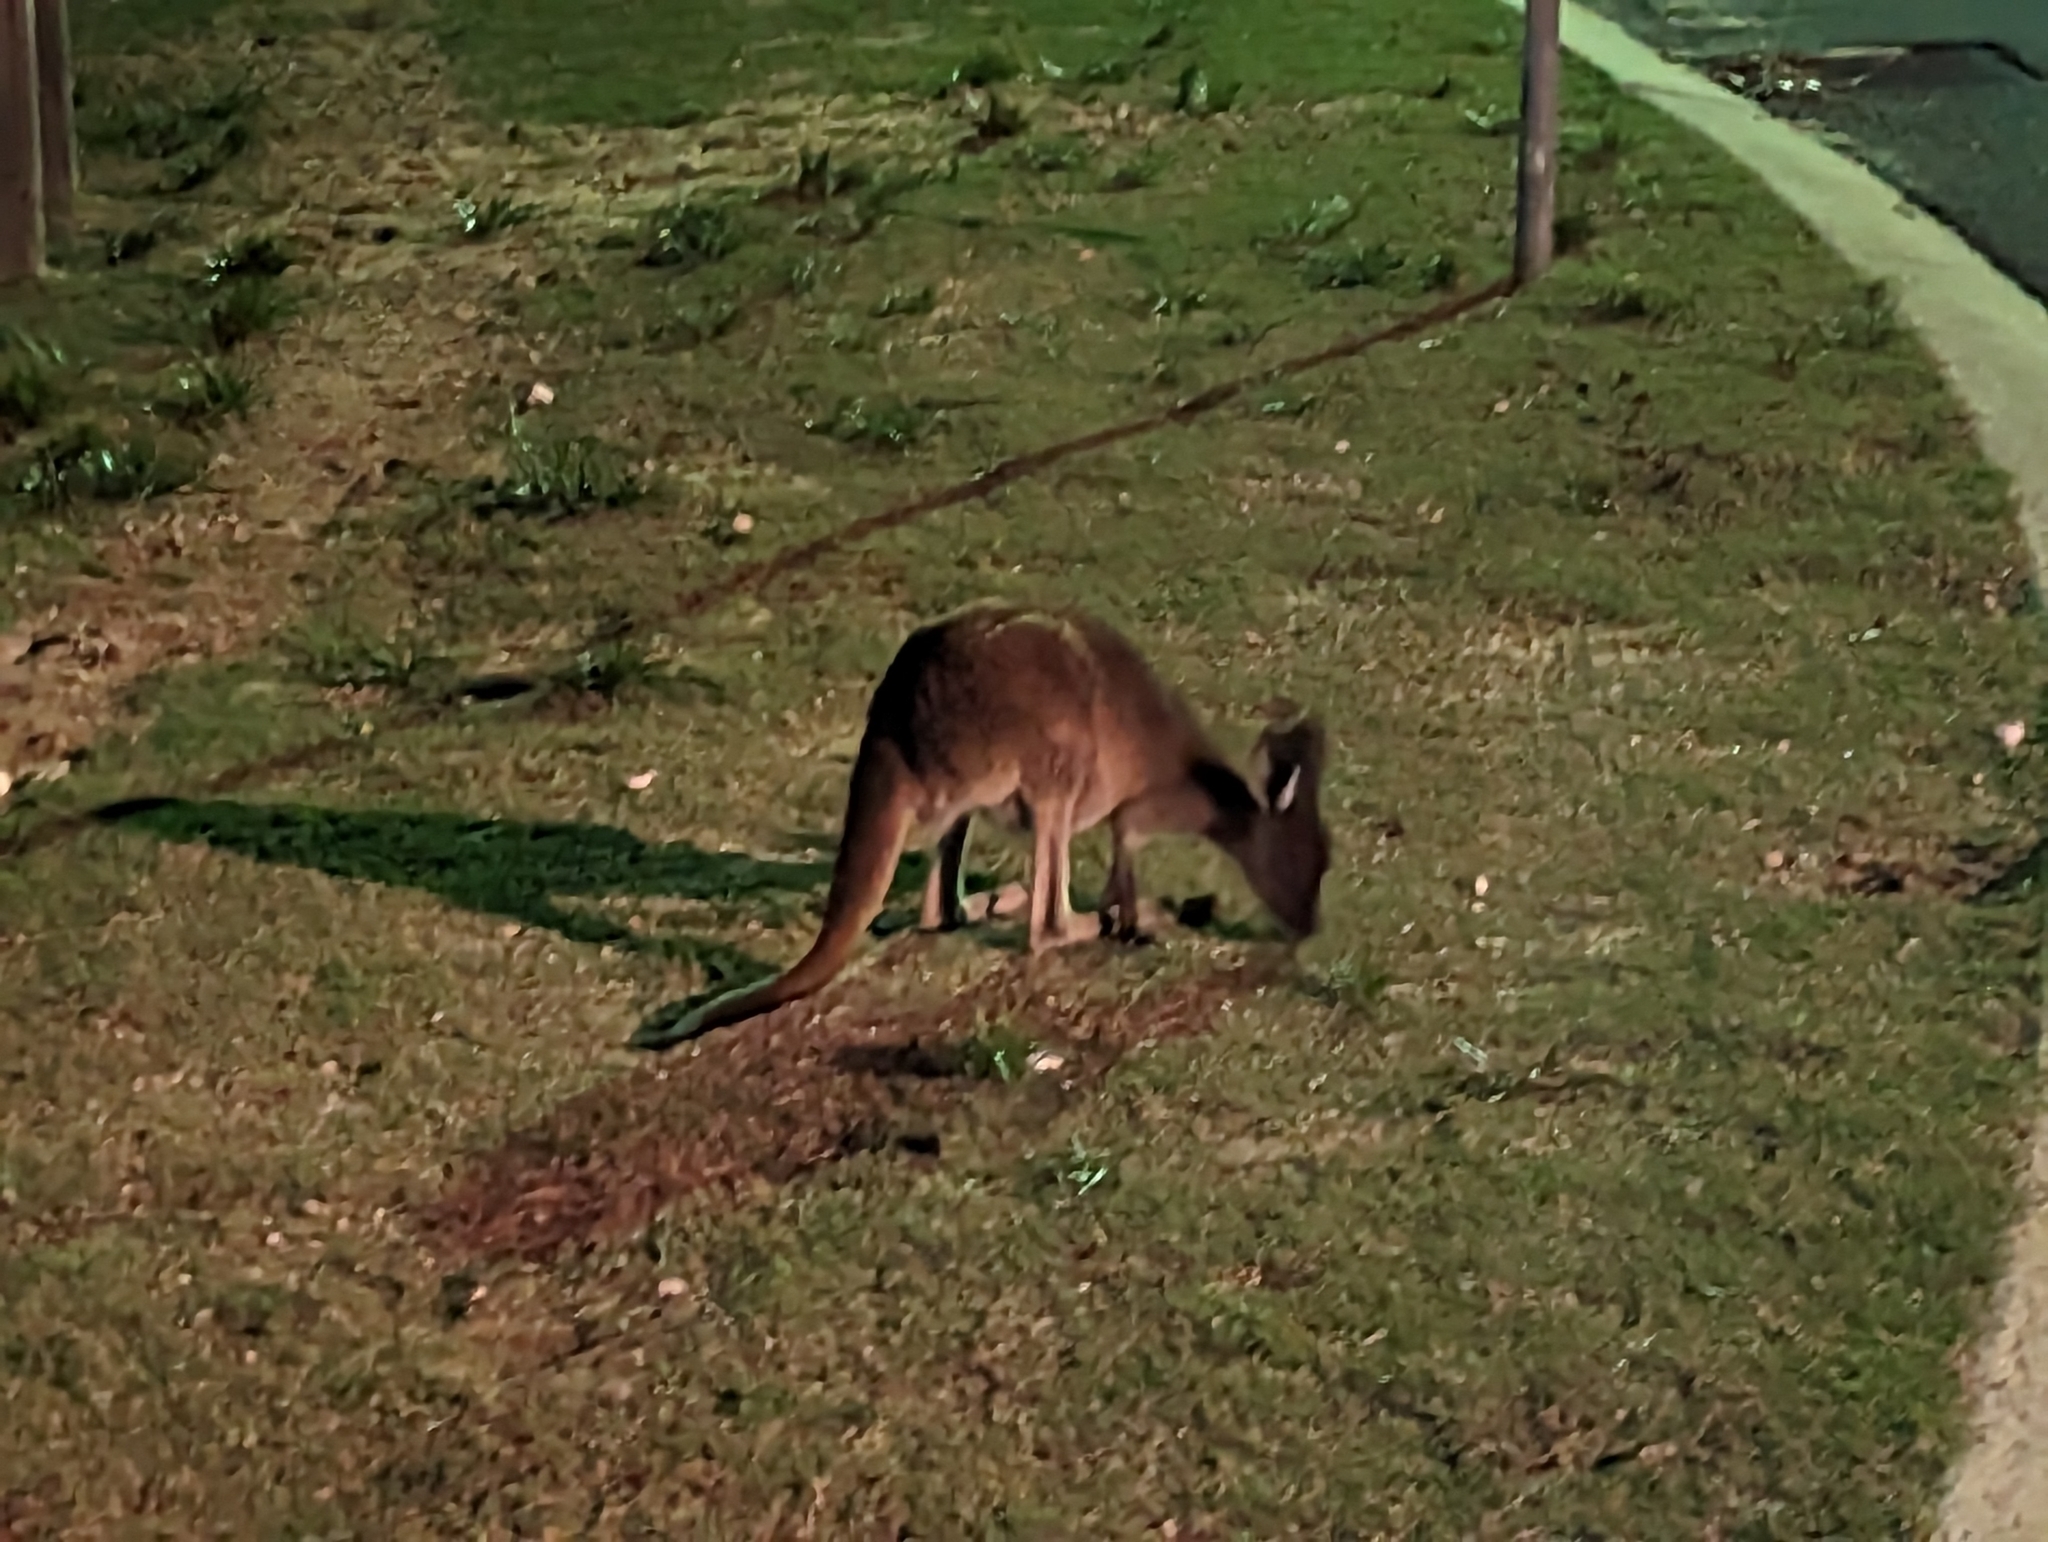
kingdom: Animalia
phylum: Chordata
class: Mammalia
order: Diprotodontia
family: Macropodidae
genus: Macropus
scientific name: Macropus fuliginosus
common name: Western grey kangaroo
